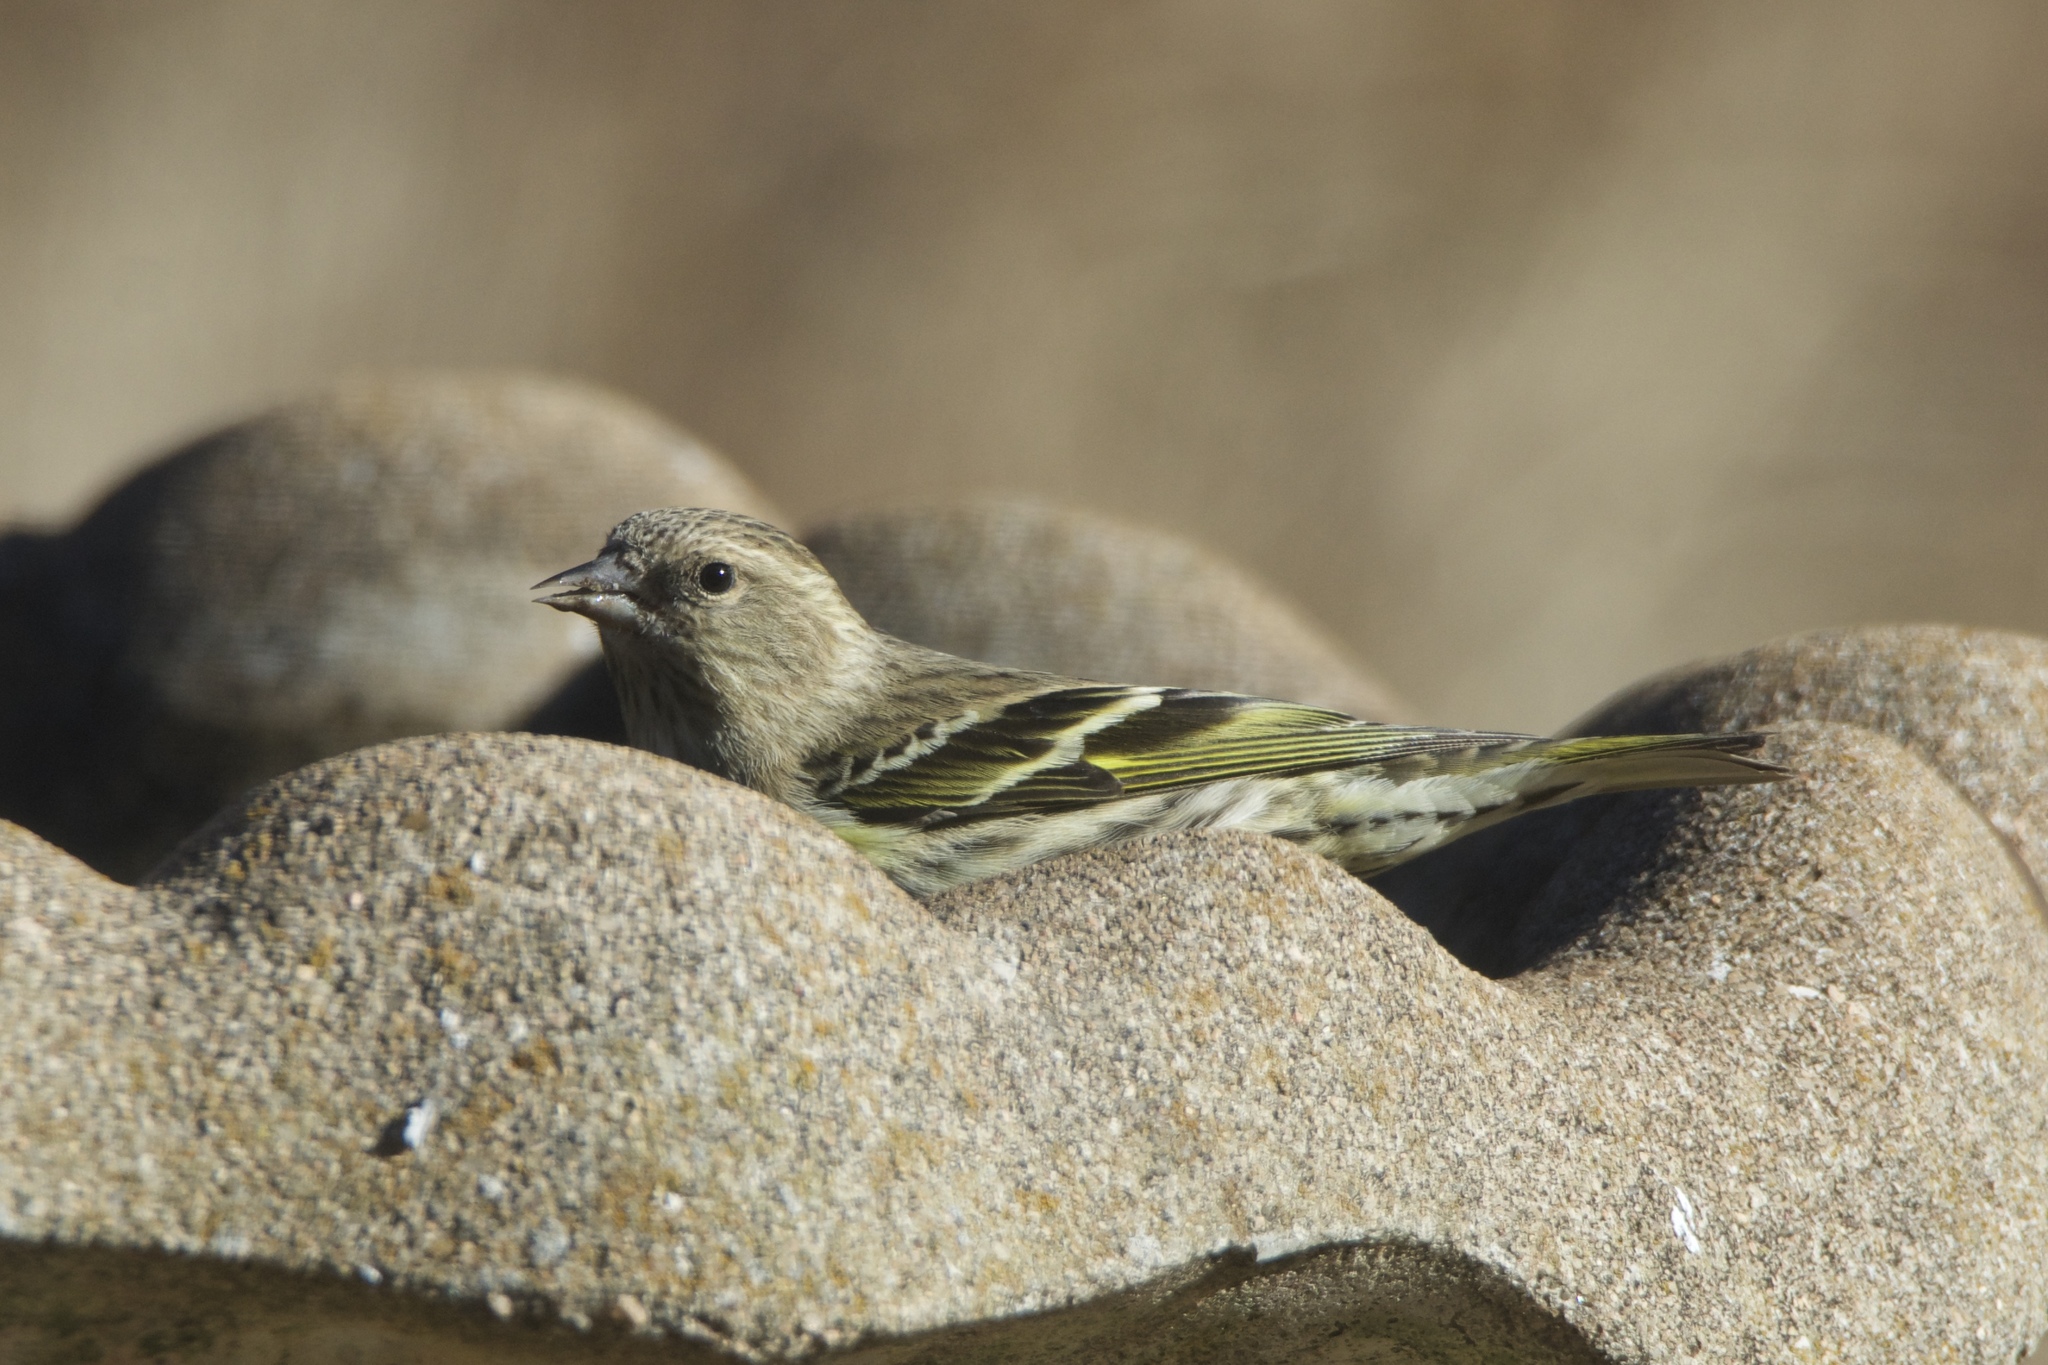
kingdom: Animalia
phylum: Chordata
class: Aves
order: Passeriformes
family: Fringillidae
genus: Spinus
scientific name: Spinus pinus
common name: Pine siskin
